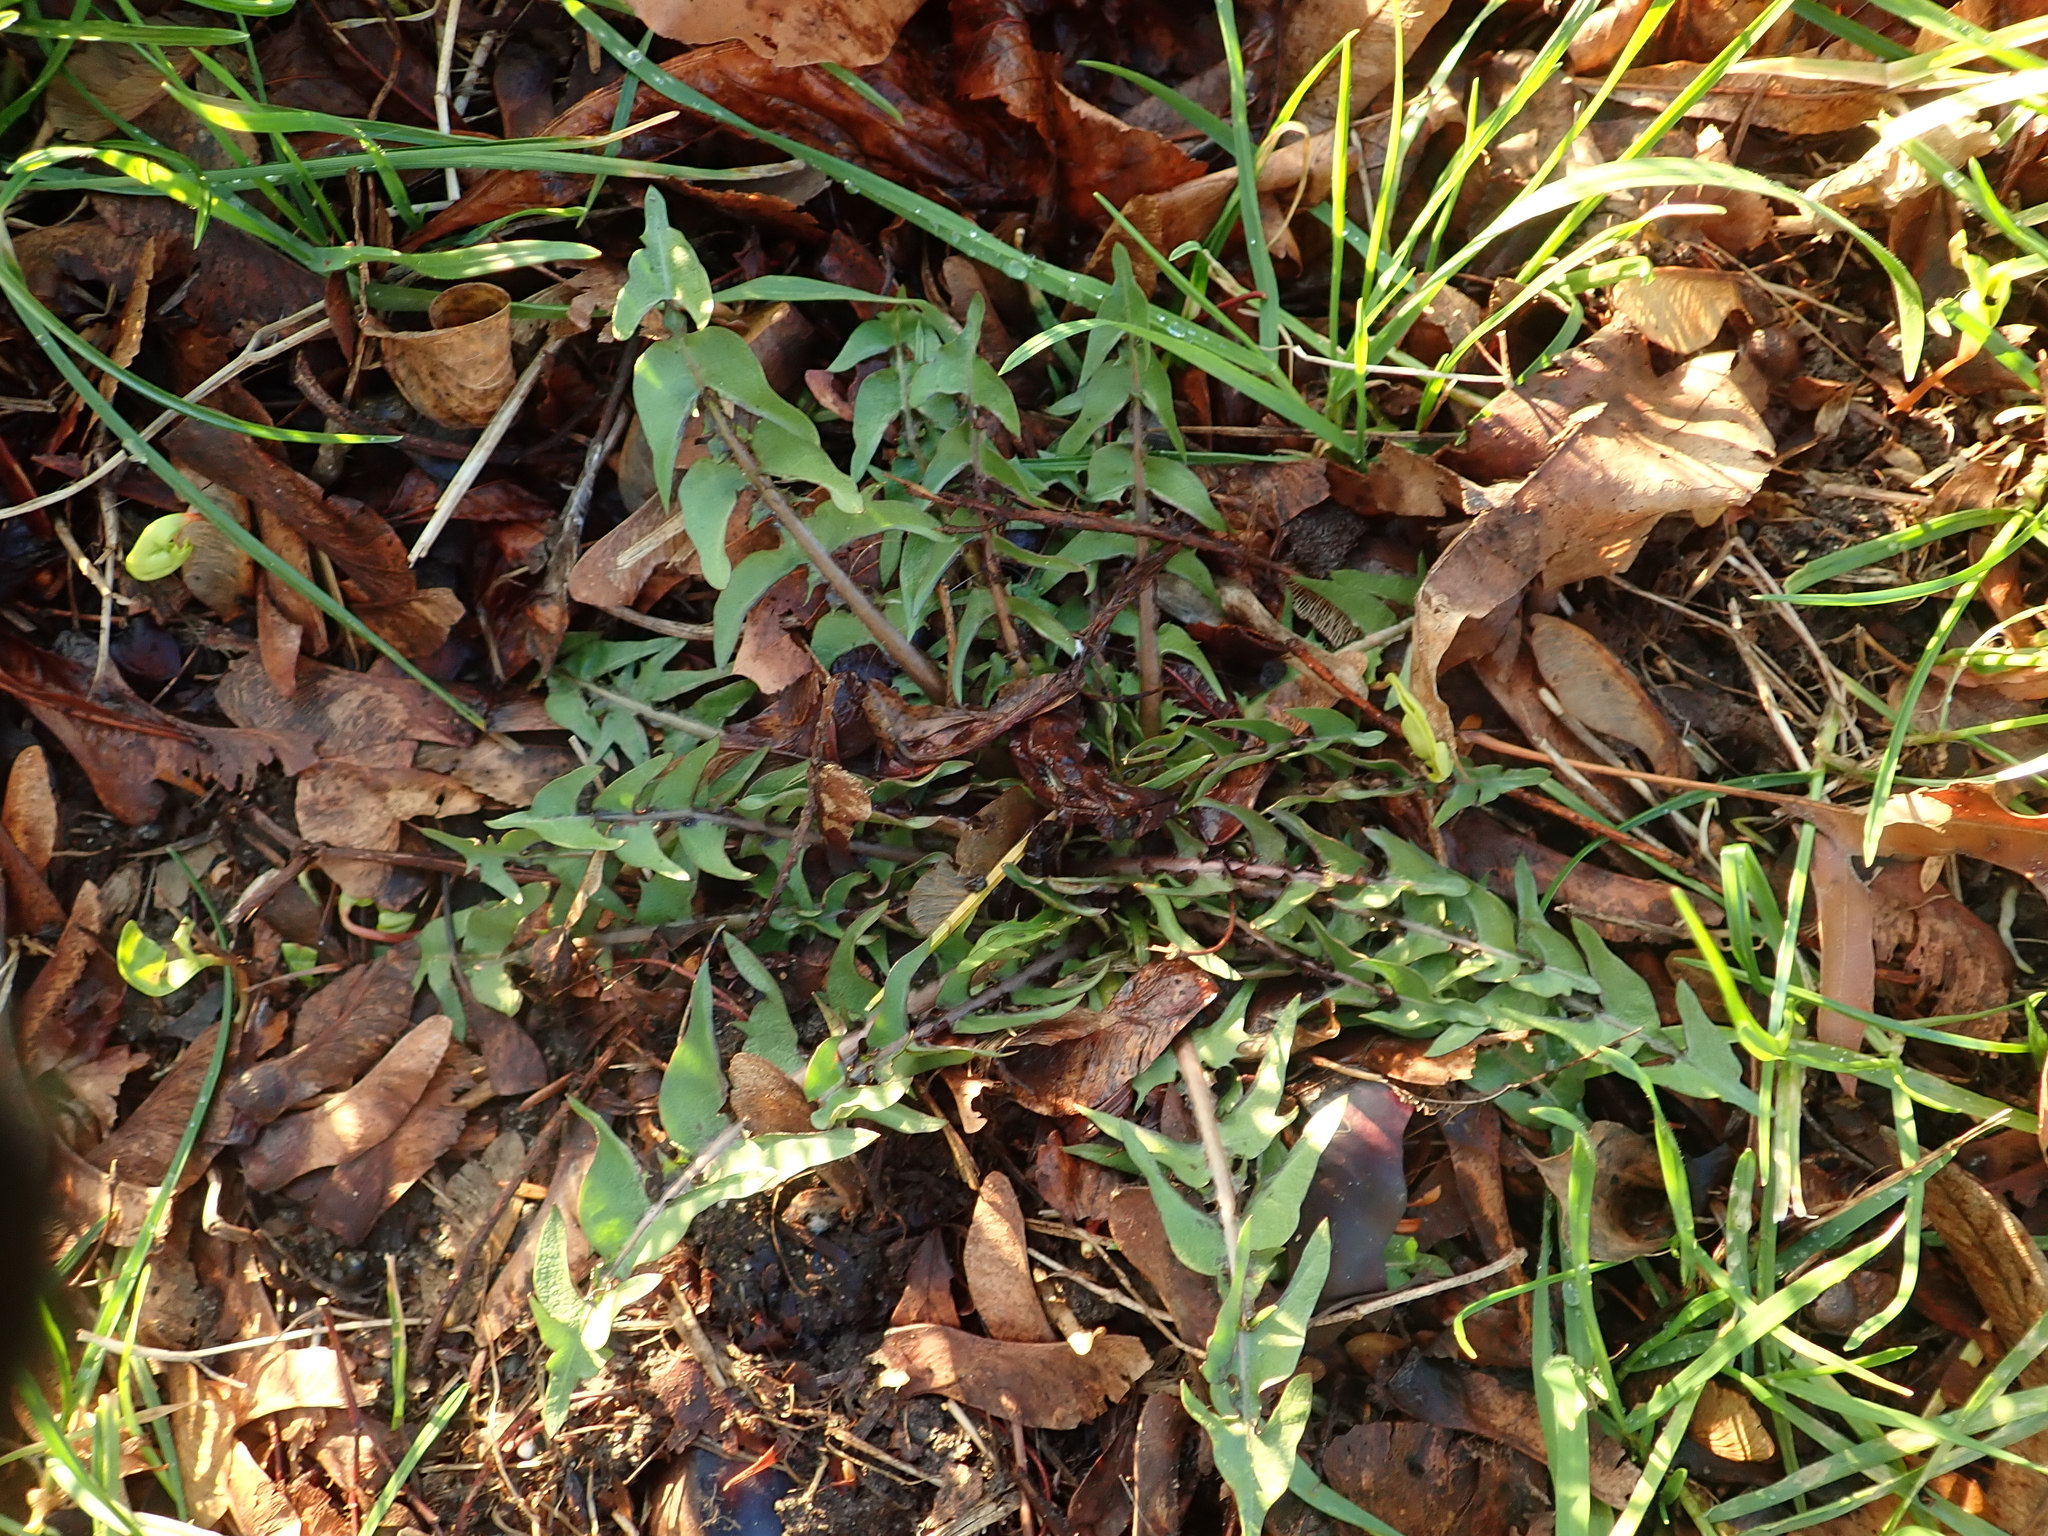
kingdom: Plantae
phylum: Tracheophyta
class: Magnoliopsida
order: Asterales
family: Asteraceae
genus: Taraxacum
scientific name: Taraxacum officinale
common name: Common dandelion
